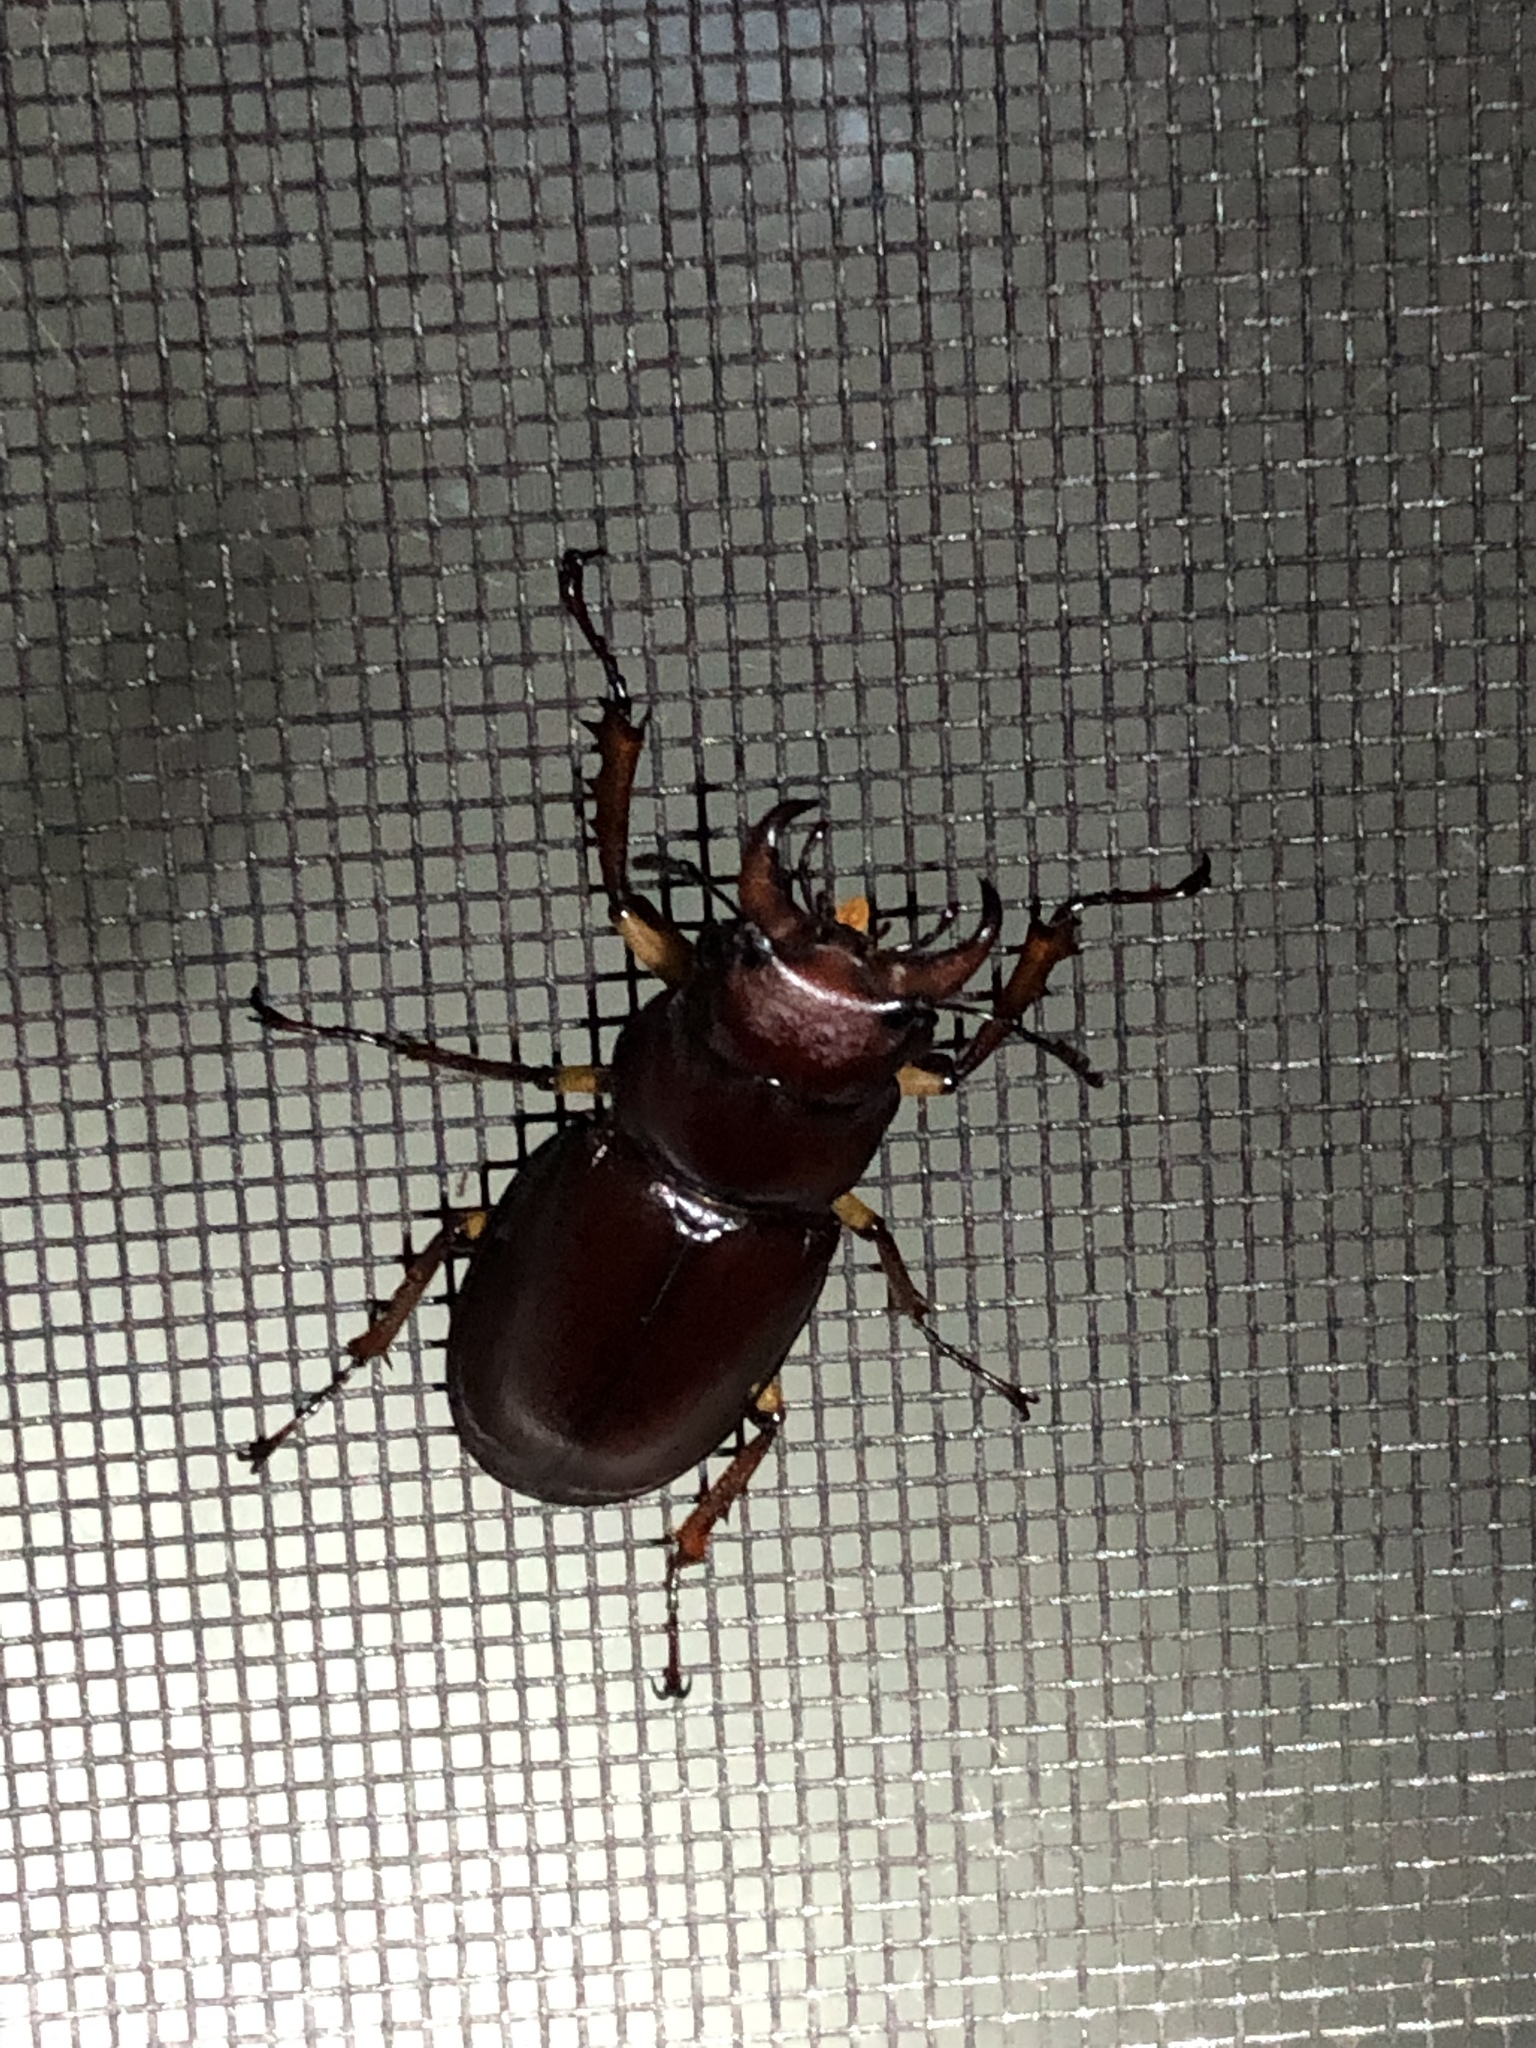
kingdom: Animalia
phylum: Arthropoda
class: Insecta
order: Coleoptera
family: Lucanidae
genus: Lucanus
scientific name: Lucanus capreolus
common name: Stag beetle
